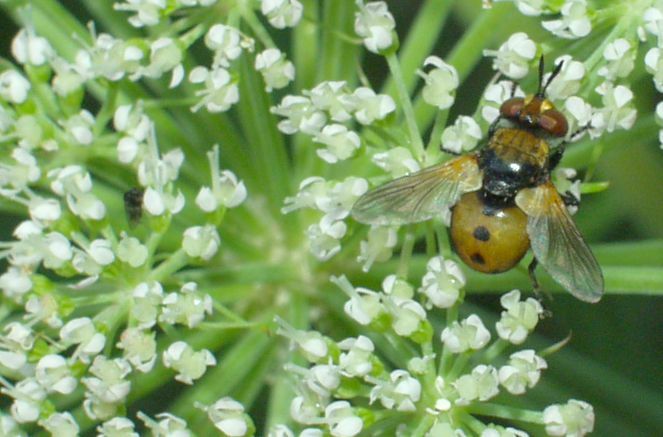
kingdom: Animalia
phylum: Arthropoda
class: Insecta
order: Diptera
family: Tachinidae
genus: Gymnosoma
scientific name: Gymnosoma rotundatum
